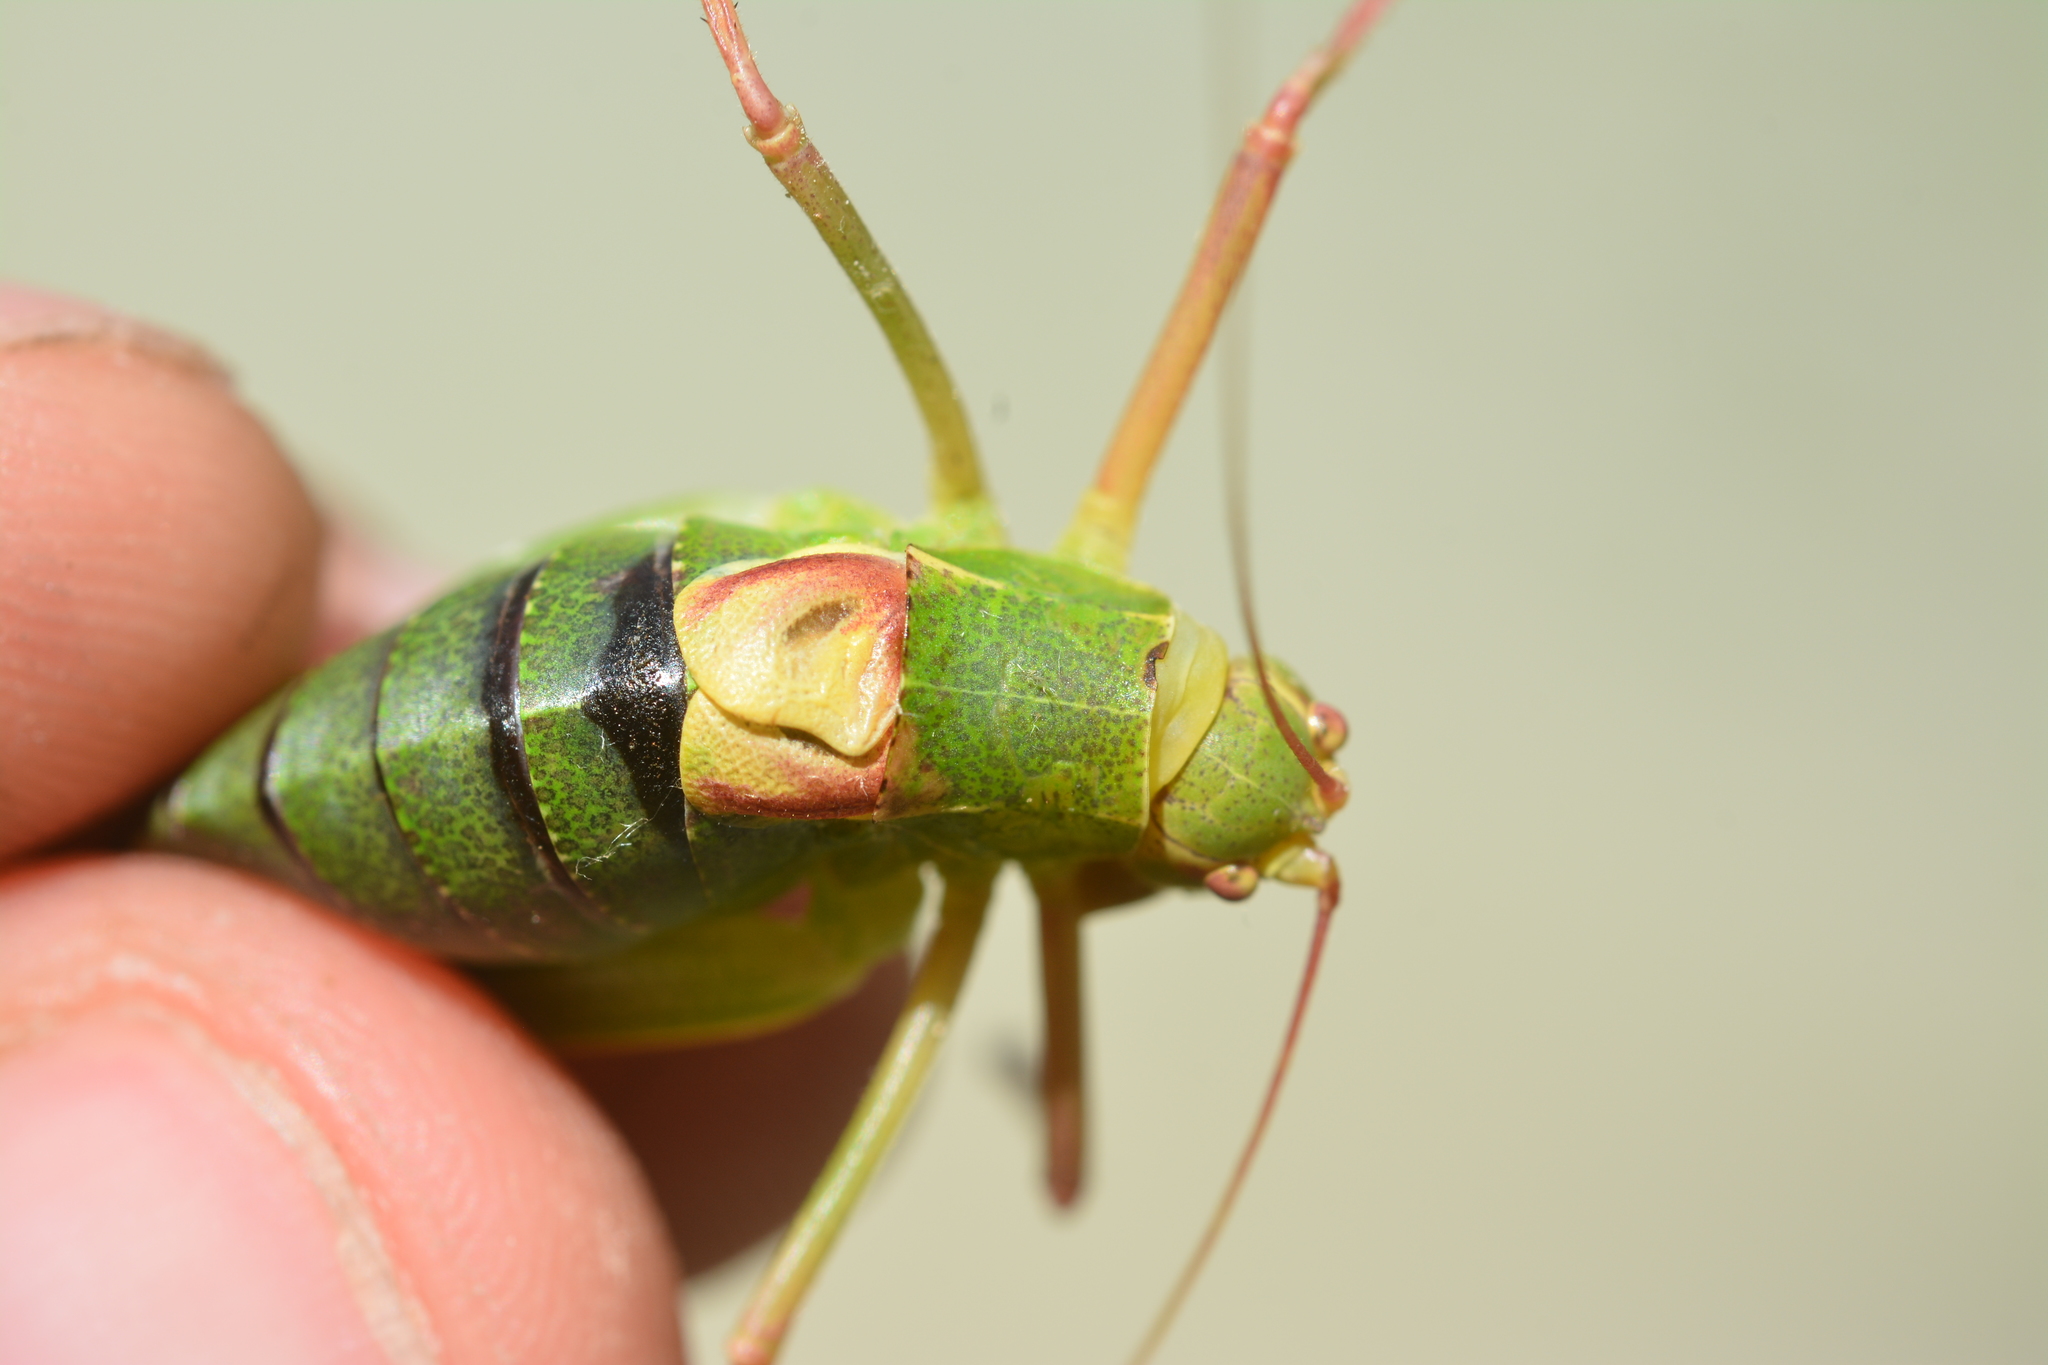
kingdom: Animalia
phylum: Arthropoda
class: Insecta
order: Orthoptera
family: Tettigoniidae
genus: Barbitistes
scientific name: Barbitistes fischeri
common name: Southern saw-tailed bush-cricket
